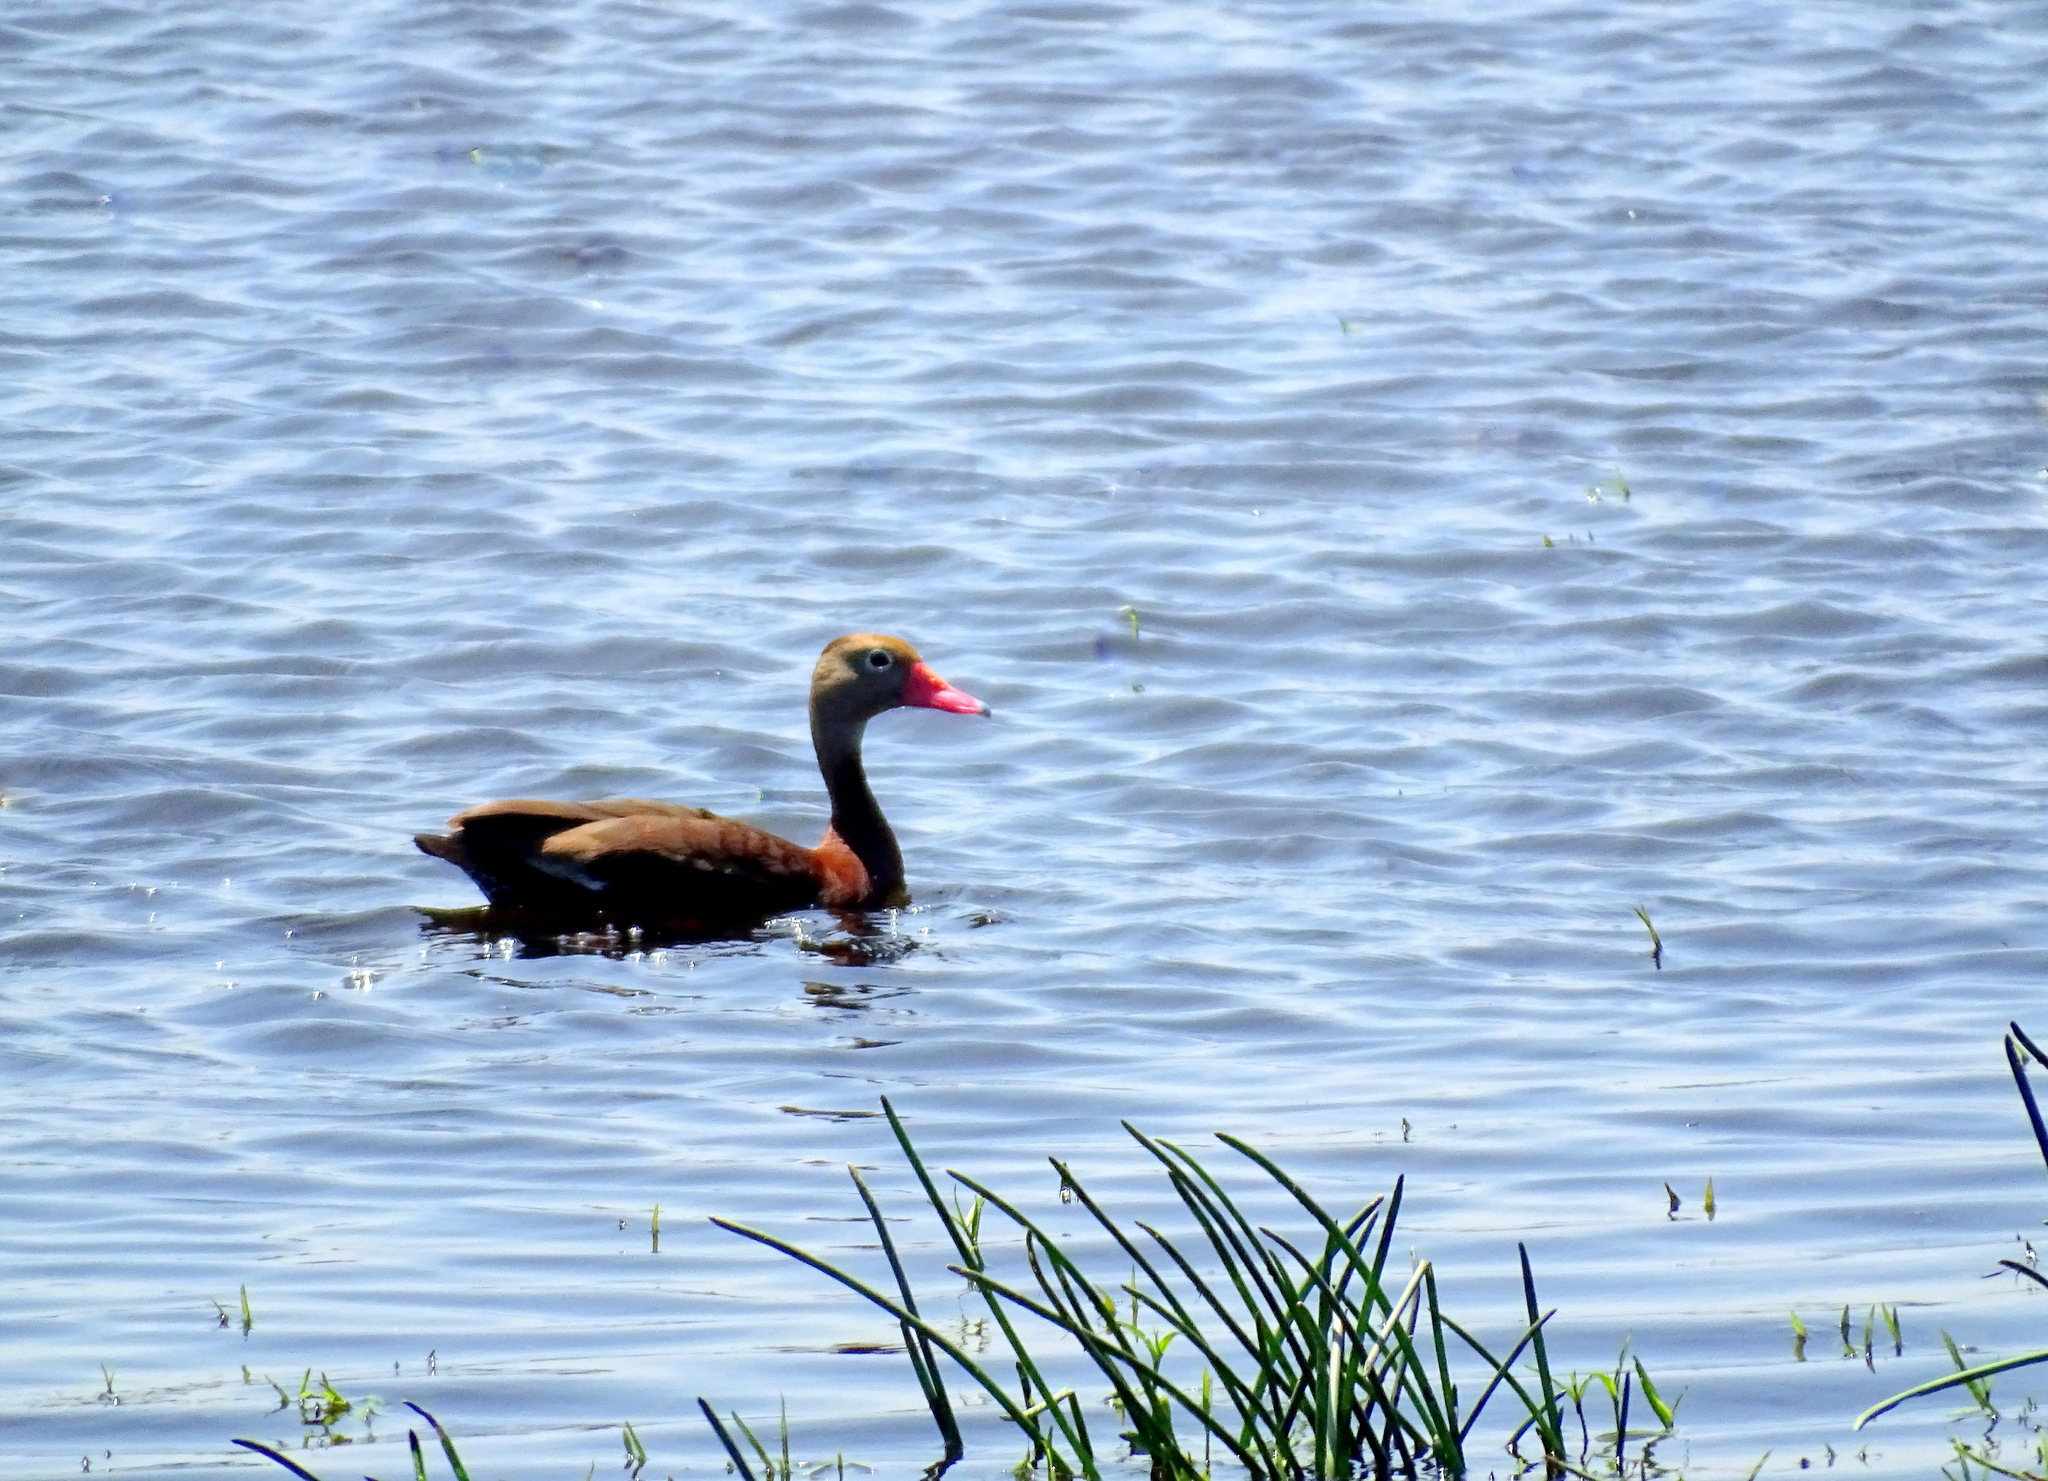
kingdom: Animalia
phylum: Chordata
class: Aves
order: Anseriformes
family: Anatidae
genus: Dendrocygna
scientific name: Dendrocygna autumnalis
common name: Black-bellied whistling duck
